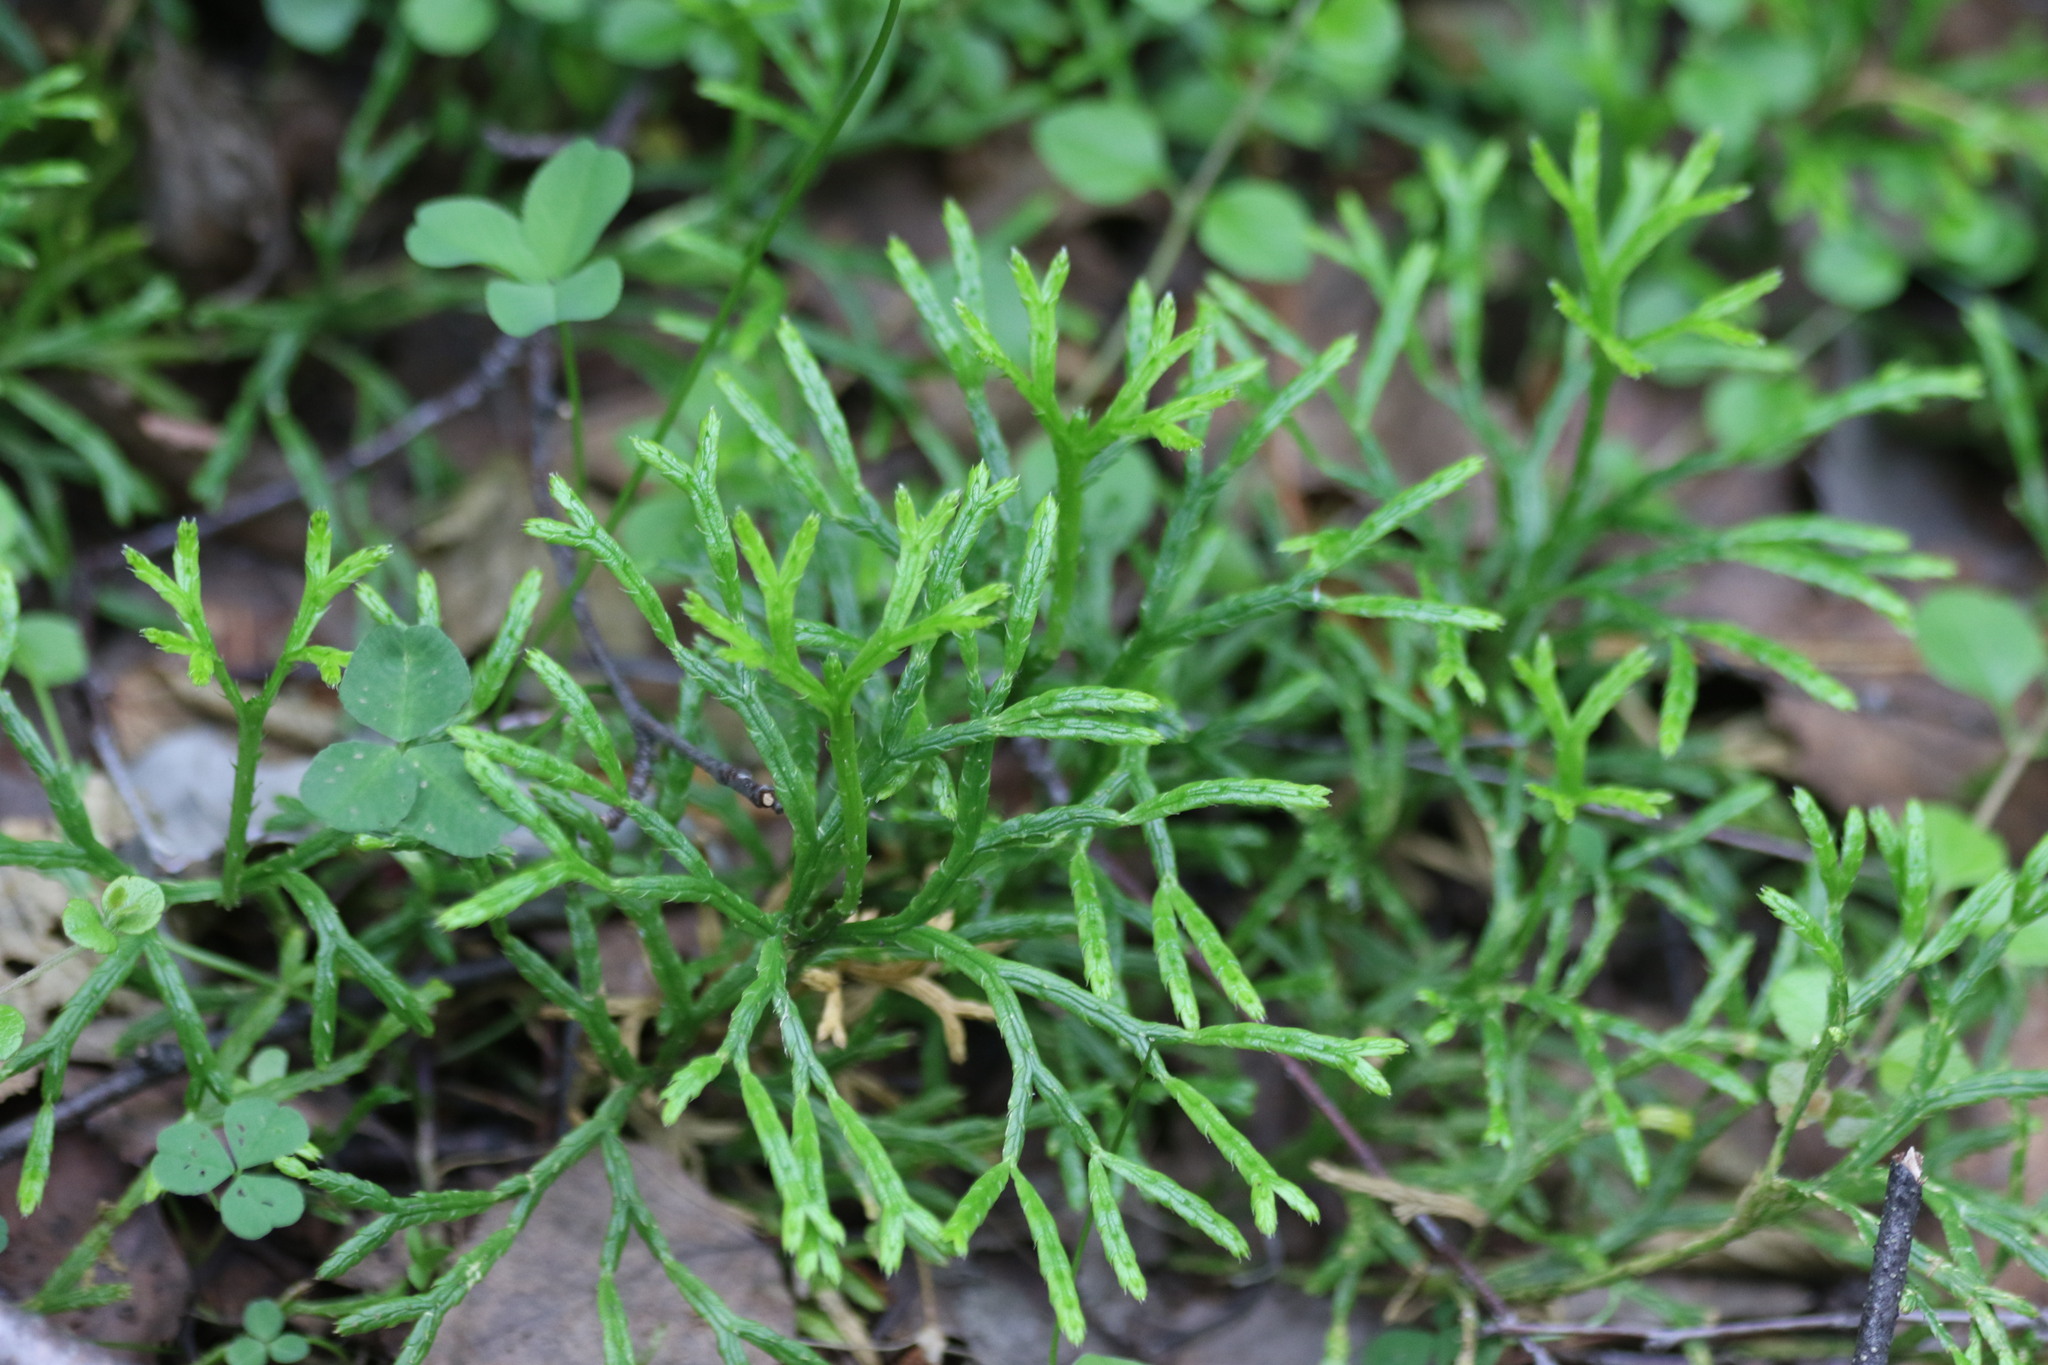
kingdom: Plantae
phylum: Tracheophyta
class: Lycopodiopsida
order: Lycopodiales
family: Lycopodiaceae
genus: Diphasiastrum
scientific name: Diphasiastrum complanatum
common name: Northern running-pine
